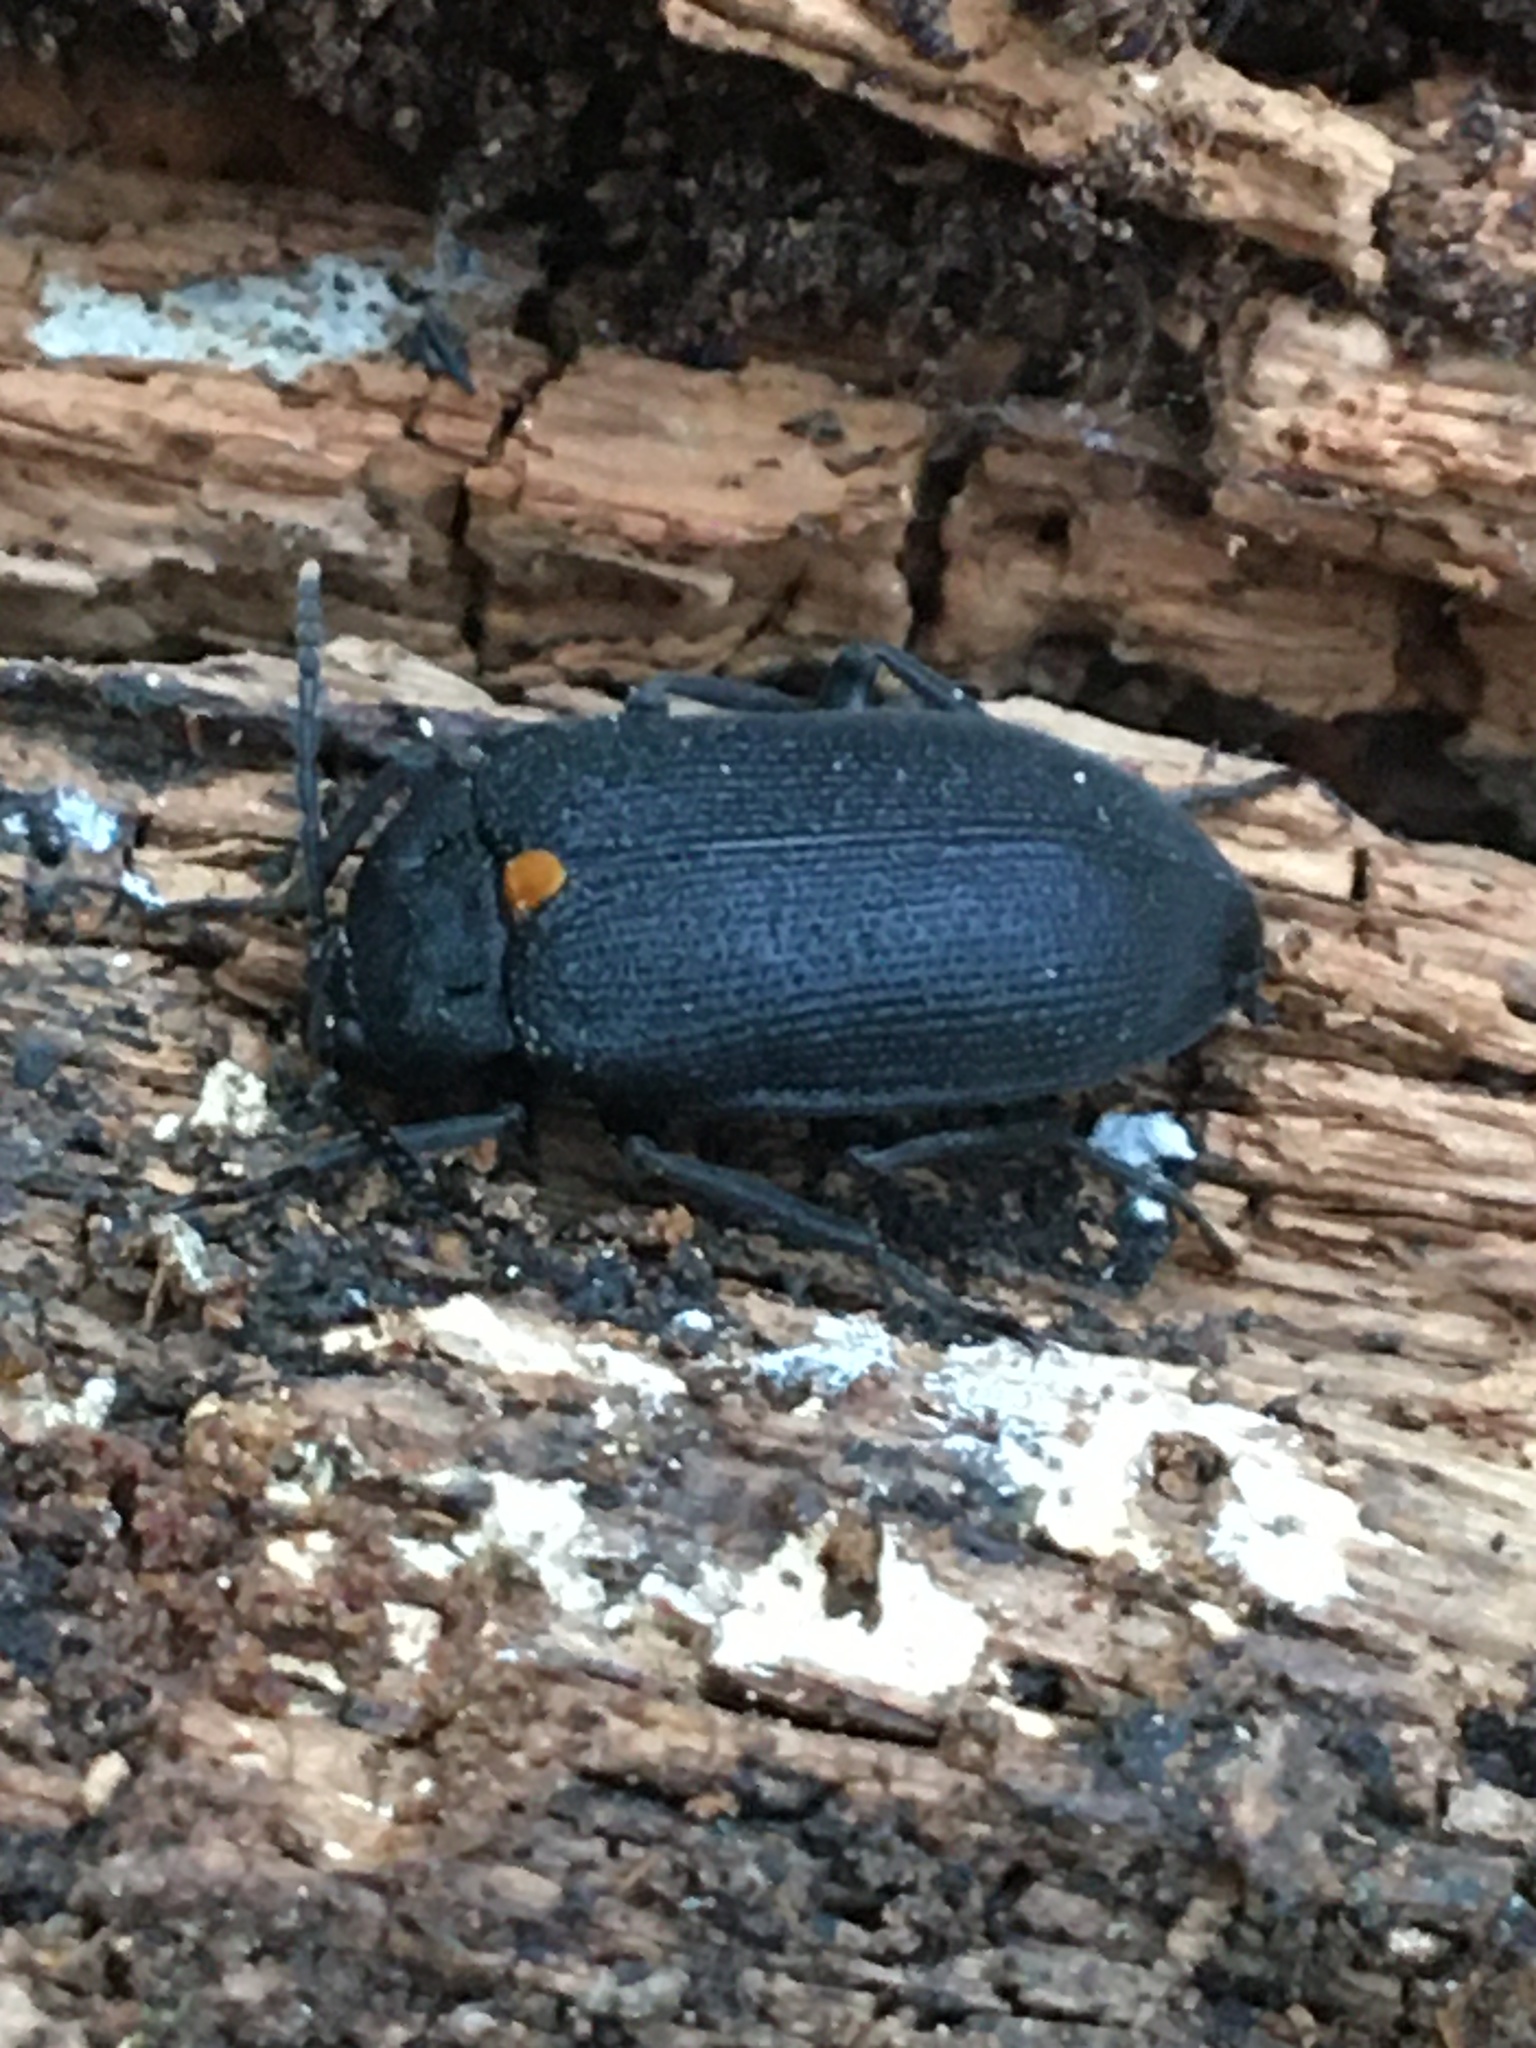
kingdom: Animalia
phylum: Arthropoda
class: Insecta
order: Coleoptera
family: Tetratomidae
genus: Penthe
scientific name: Penthe obliquata
